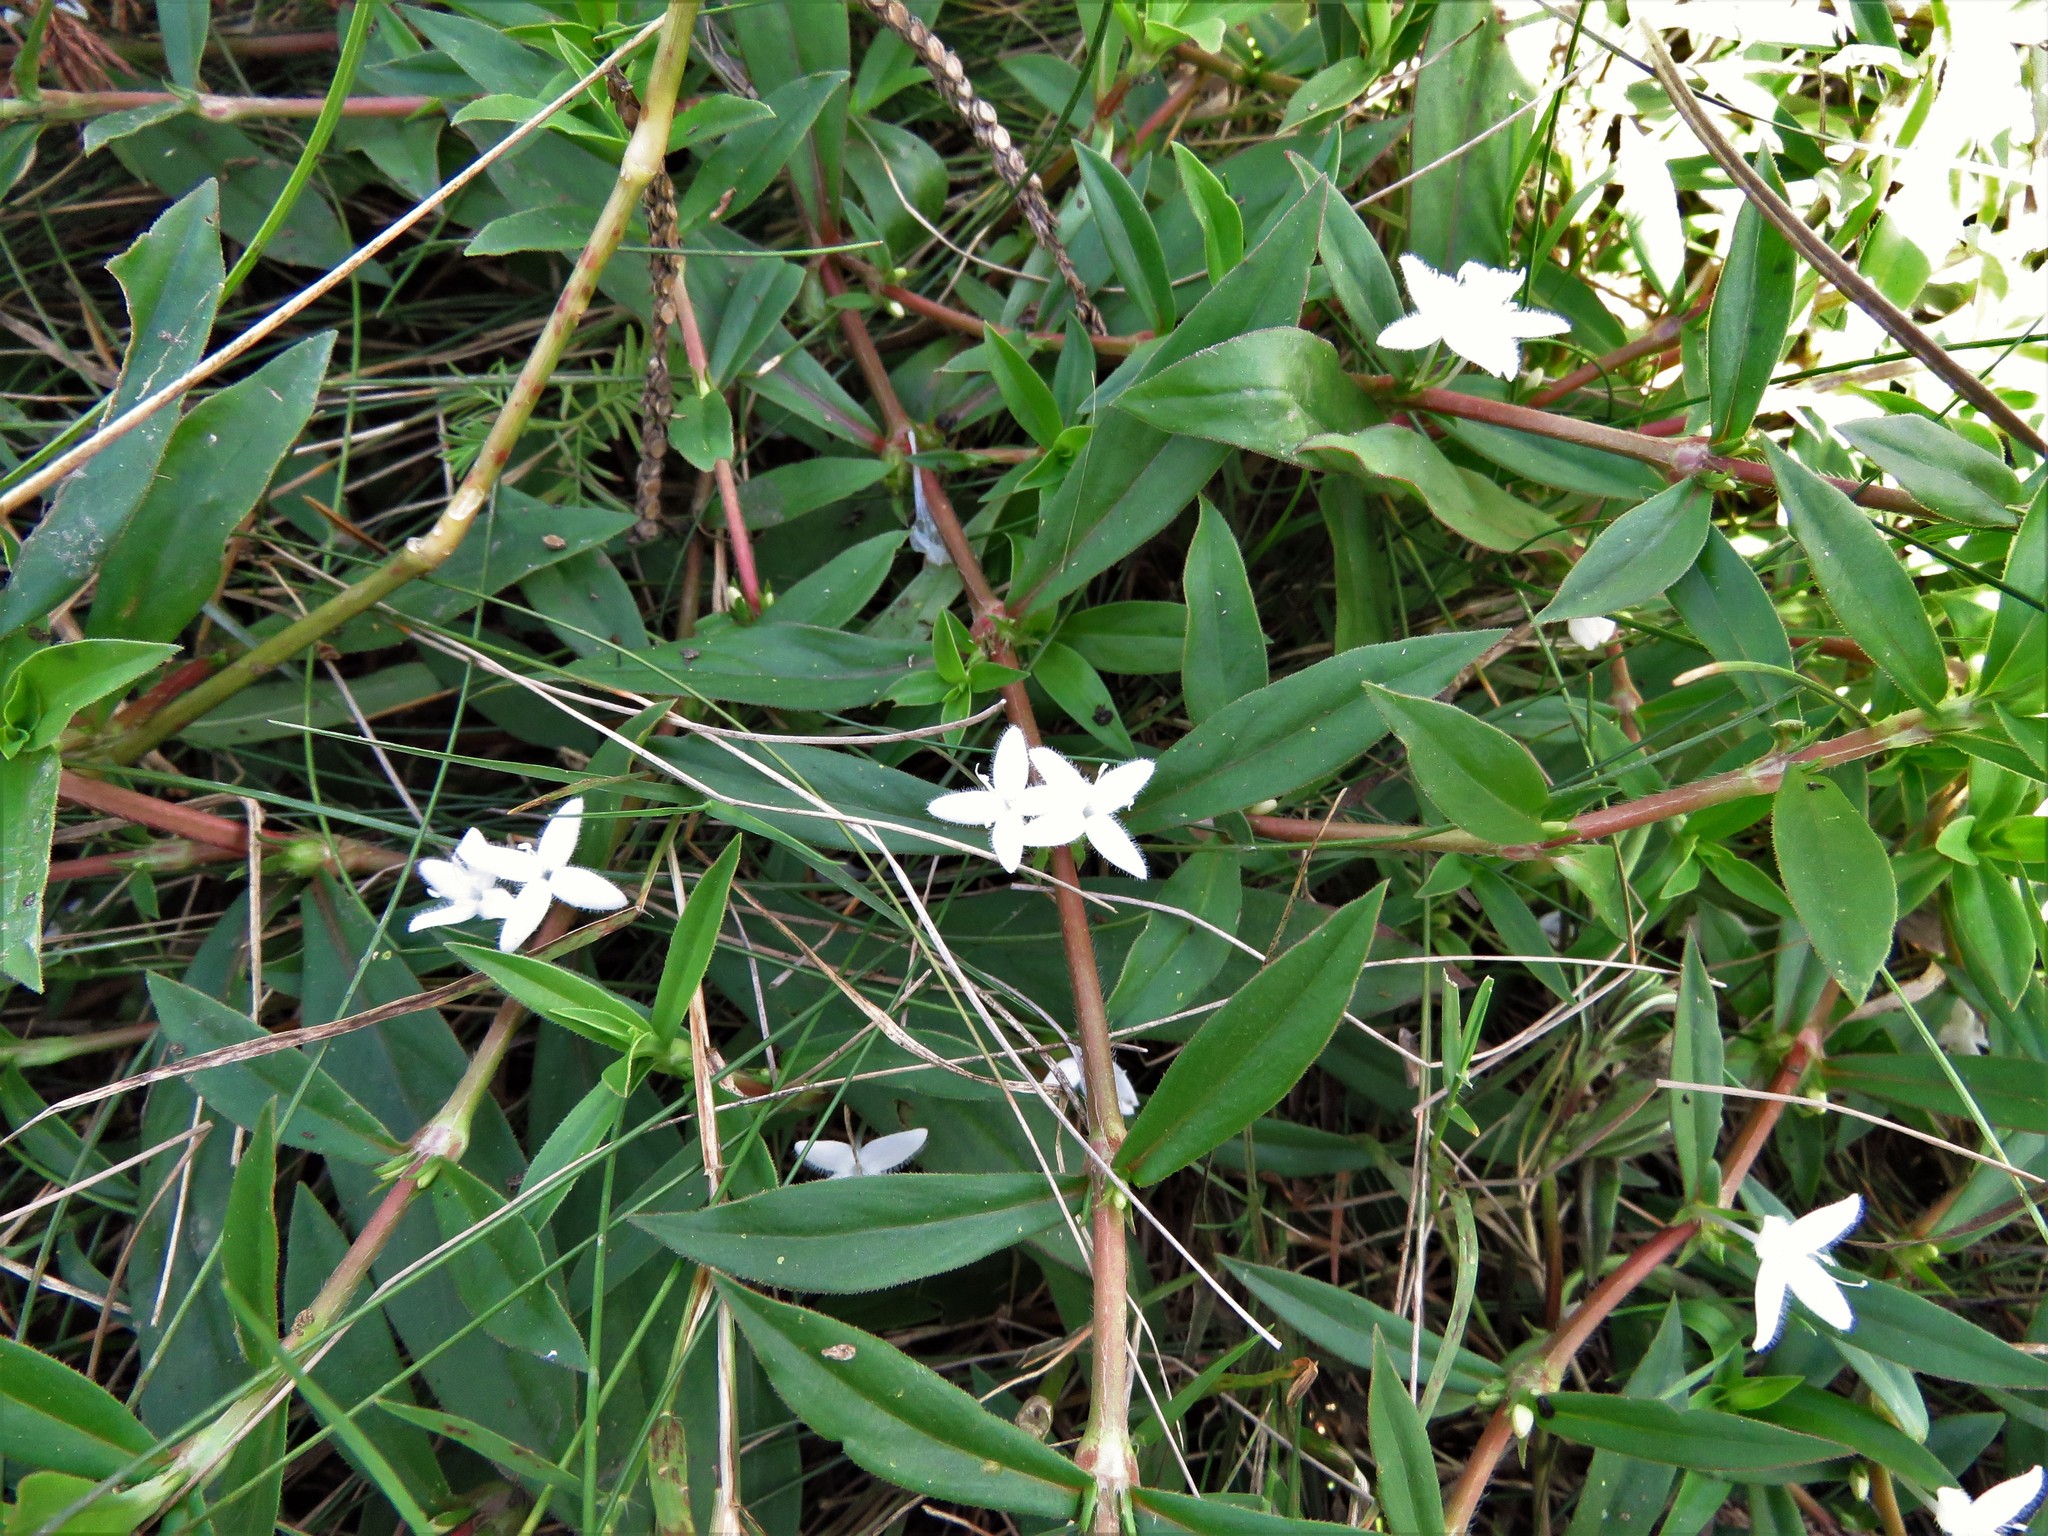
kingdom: Plantae
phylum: Tracheophyta
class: Magnoliopsida
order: Gentianales
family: Rubiaceae
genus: Diodia
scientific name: Diodia virginiana
